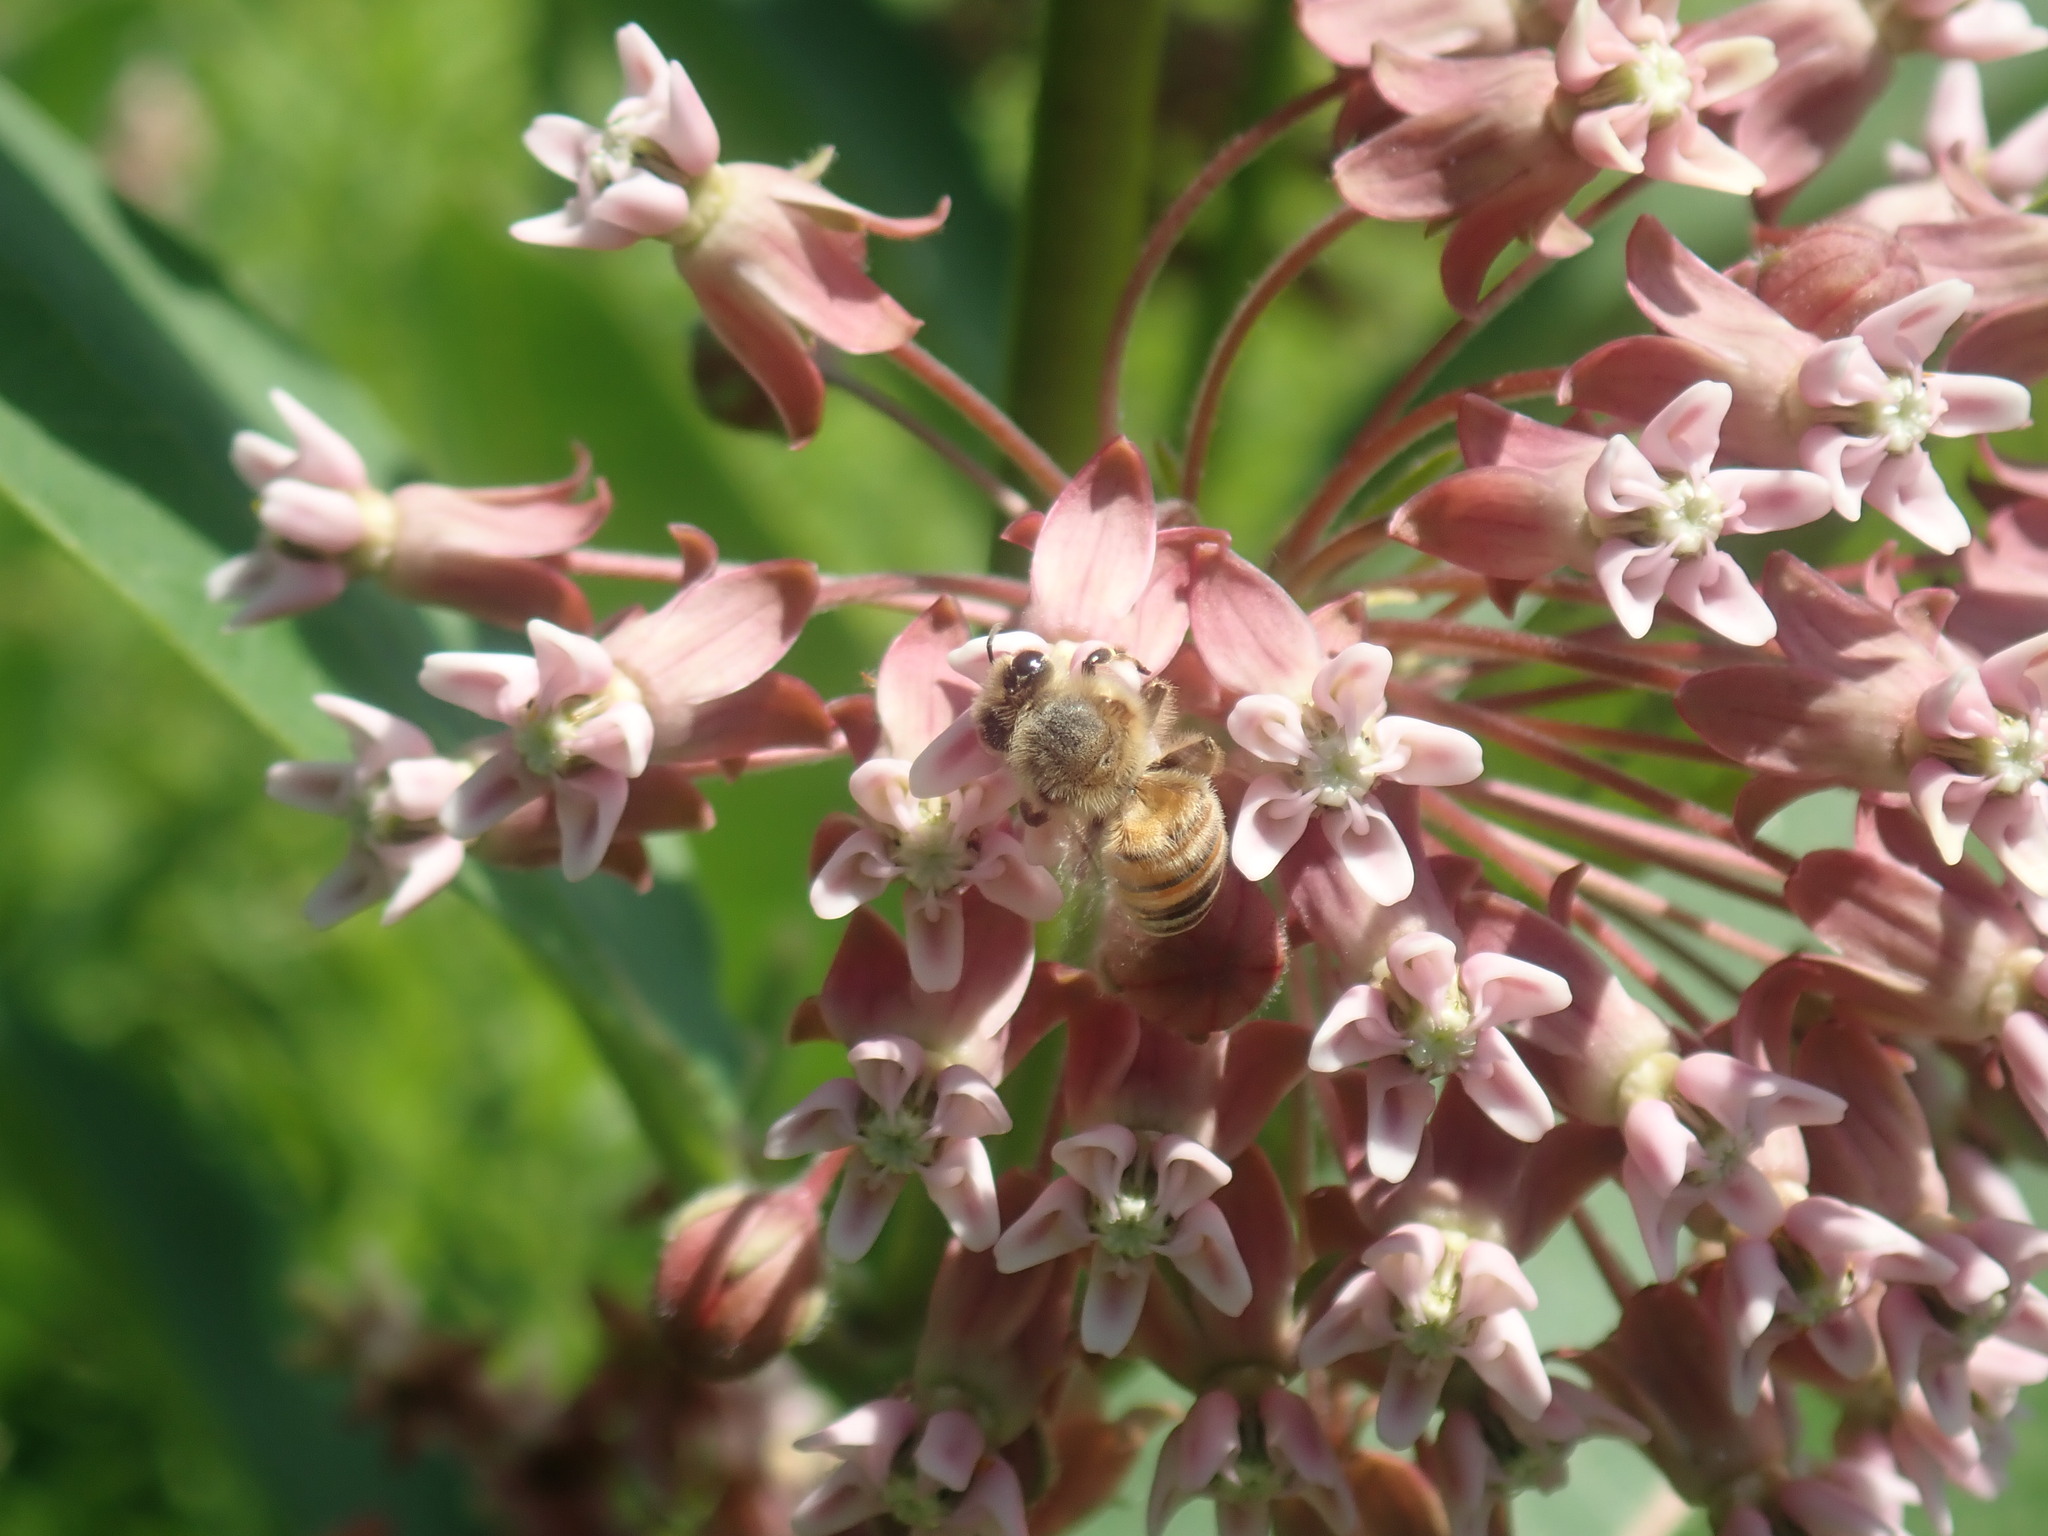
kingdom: Animalia
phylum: Arthropoda
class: Insecta
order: Hymenoptera
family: Apidae
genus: Apis
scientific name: Apis mellifera
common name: Honey bee
